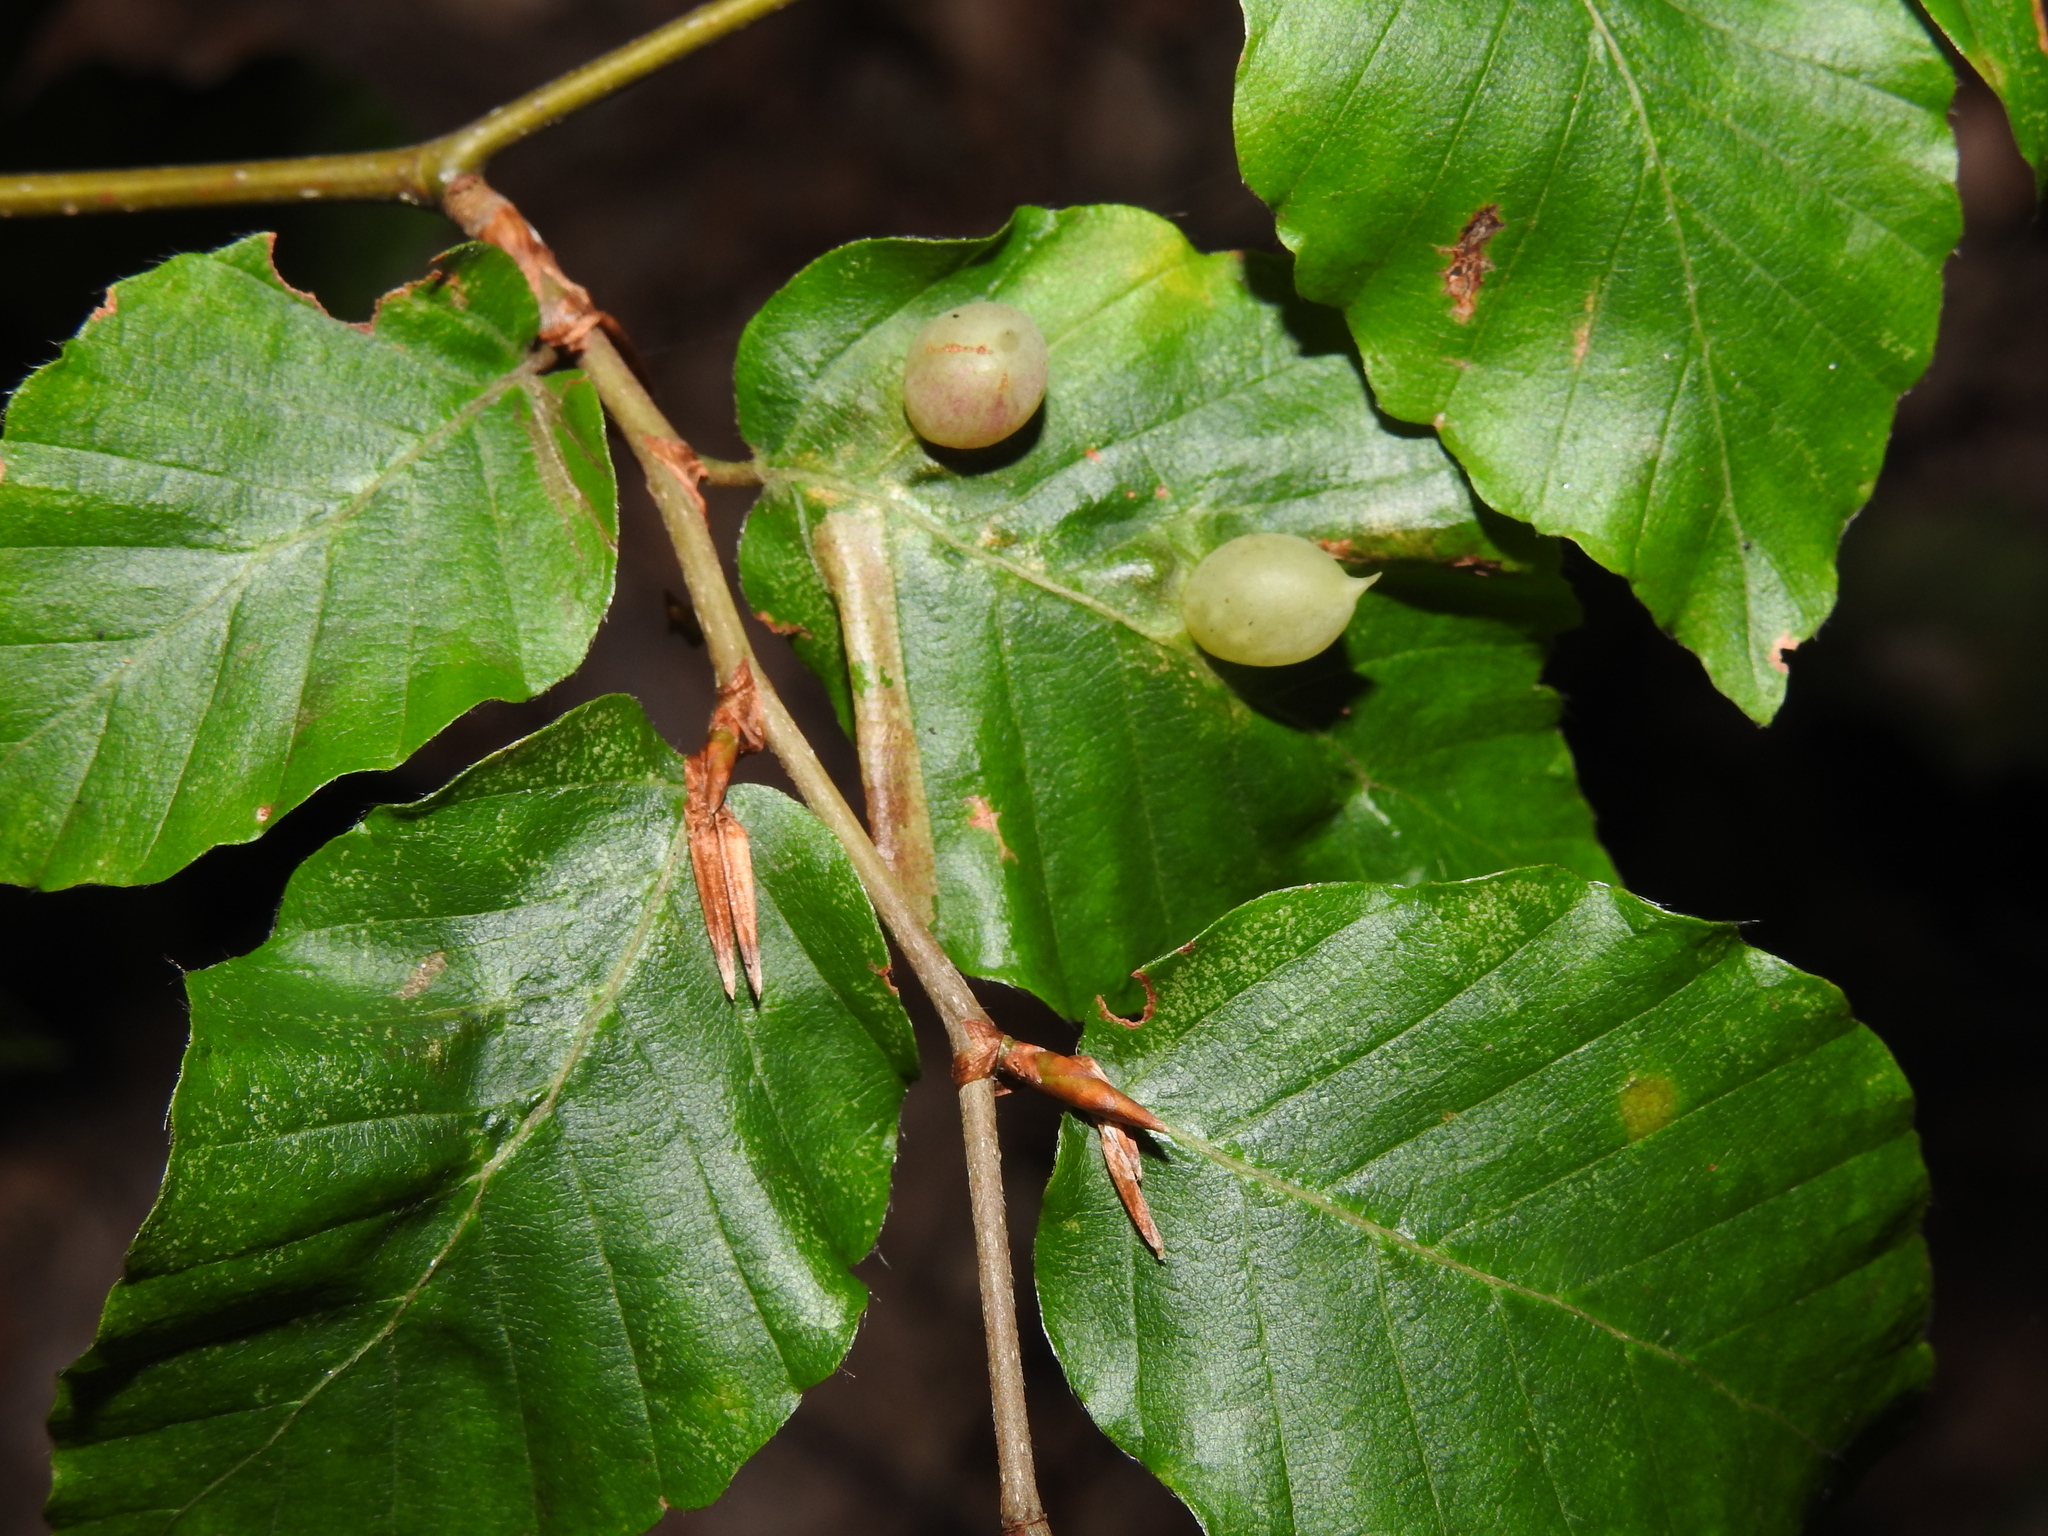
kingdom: Animalia
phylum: Arthropoda
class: Insecta
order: Diptera
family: Cecidomyiidae
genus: Mikiola
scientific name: Mikiola fagi
